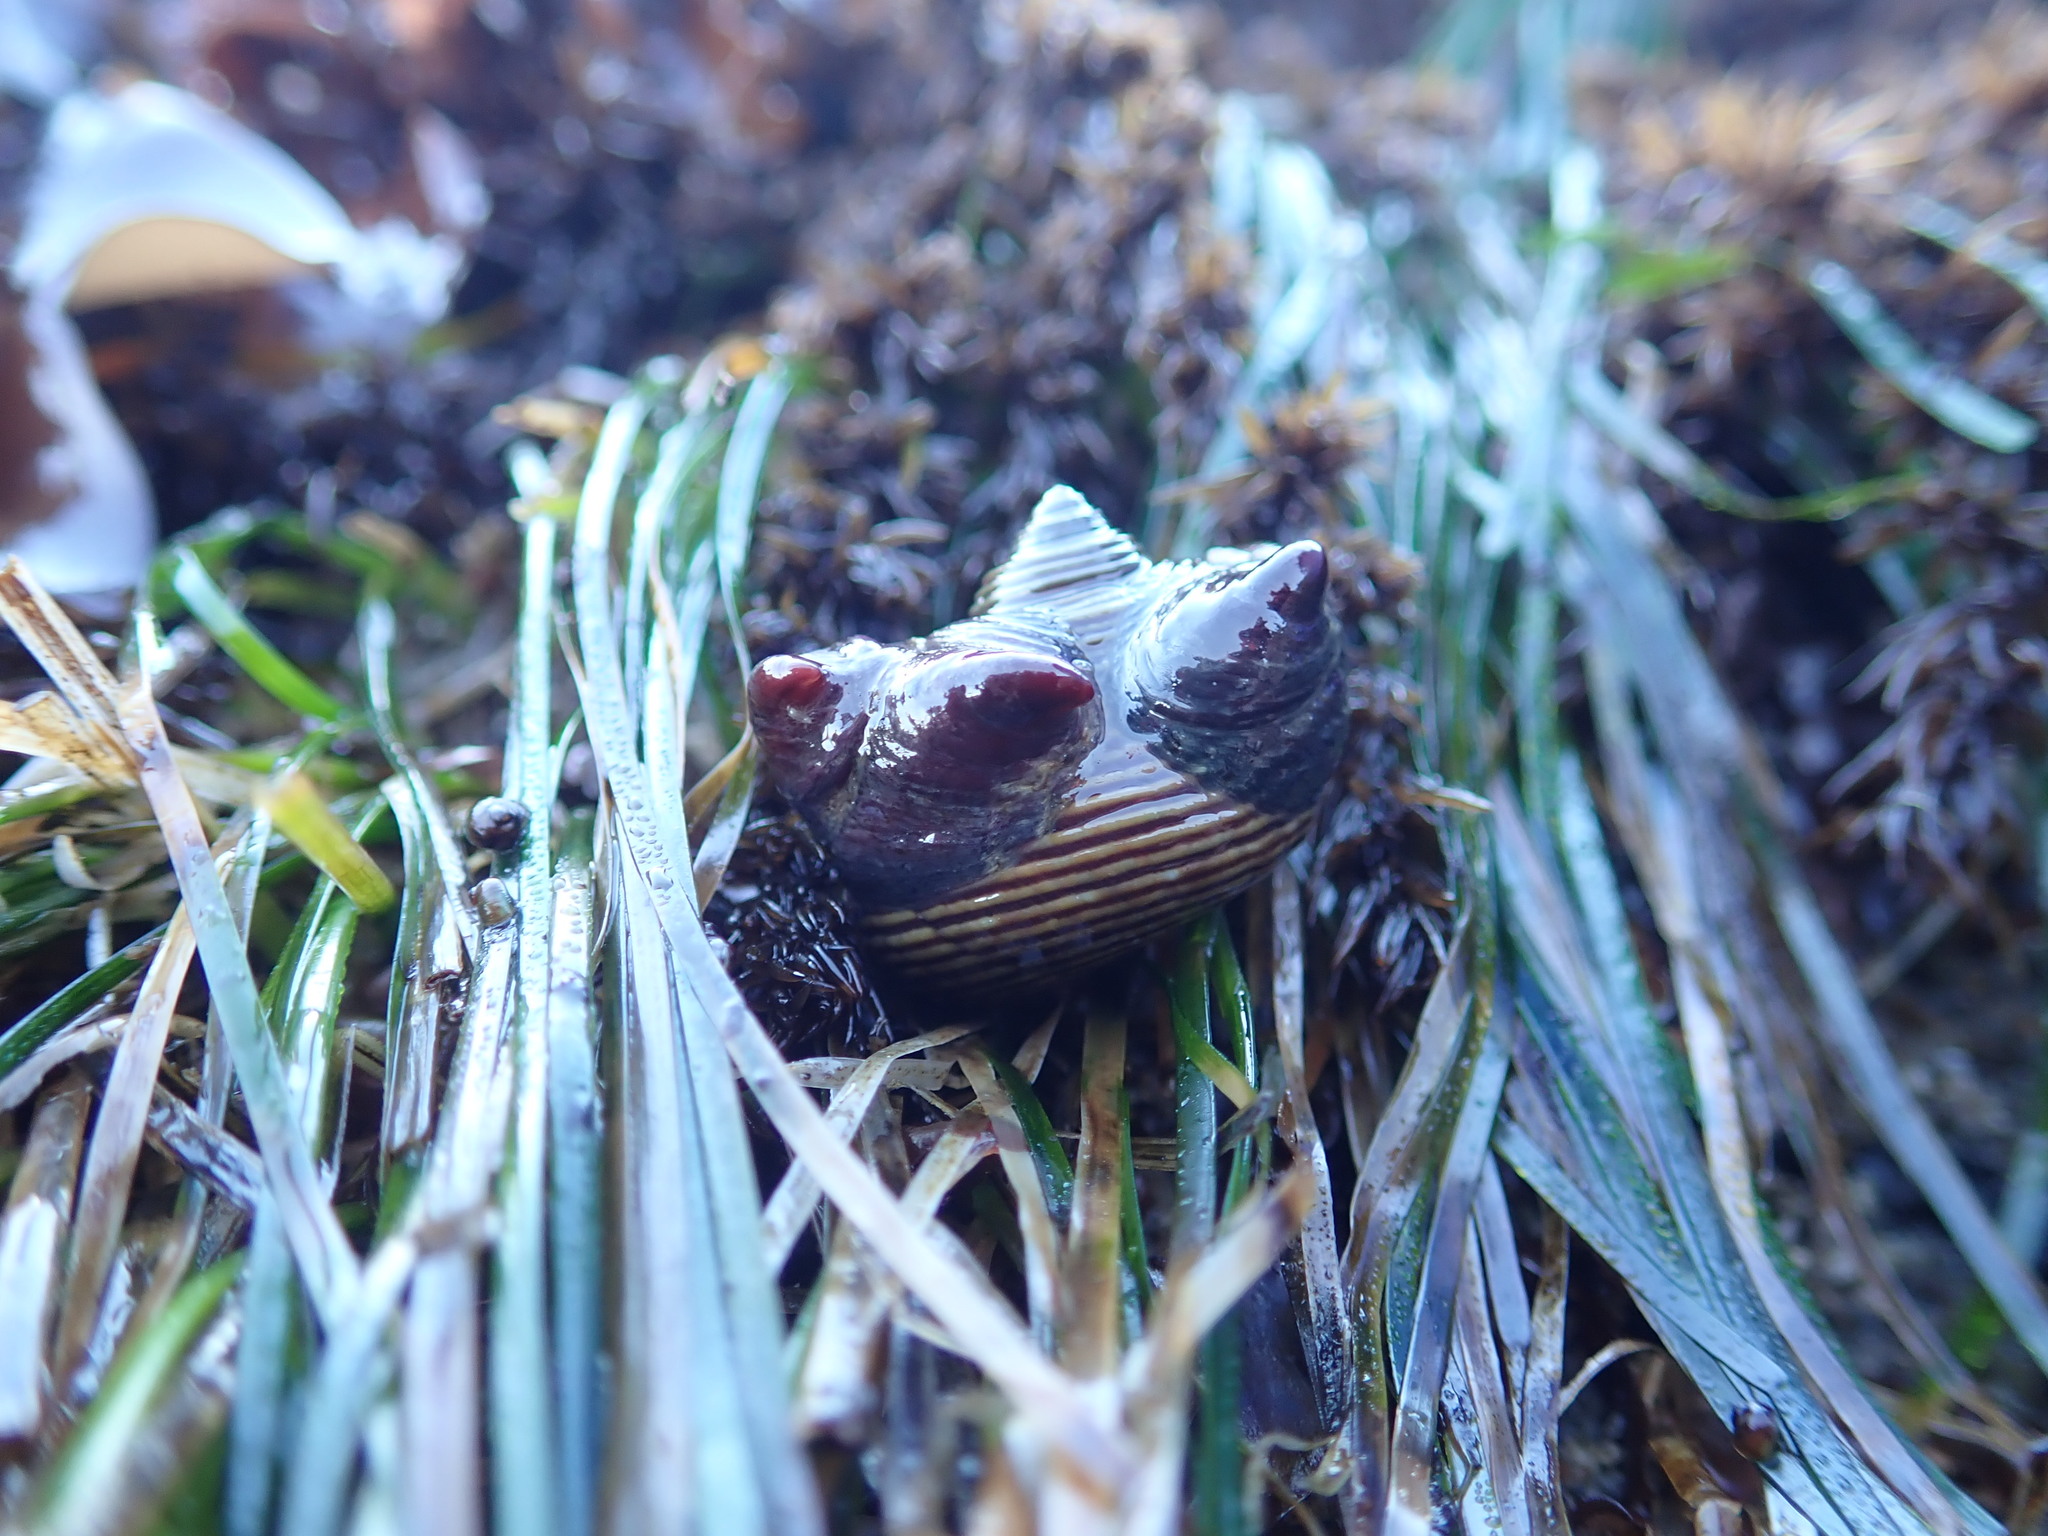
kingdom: Animalia
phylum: Mollusca
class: Gastropoda
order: Trochida
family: Calliostomatidae
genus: Calliostoma
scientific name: Calliostoma ligatum
